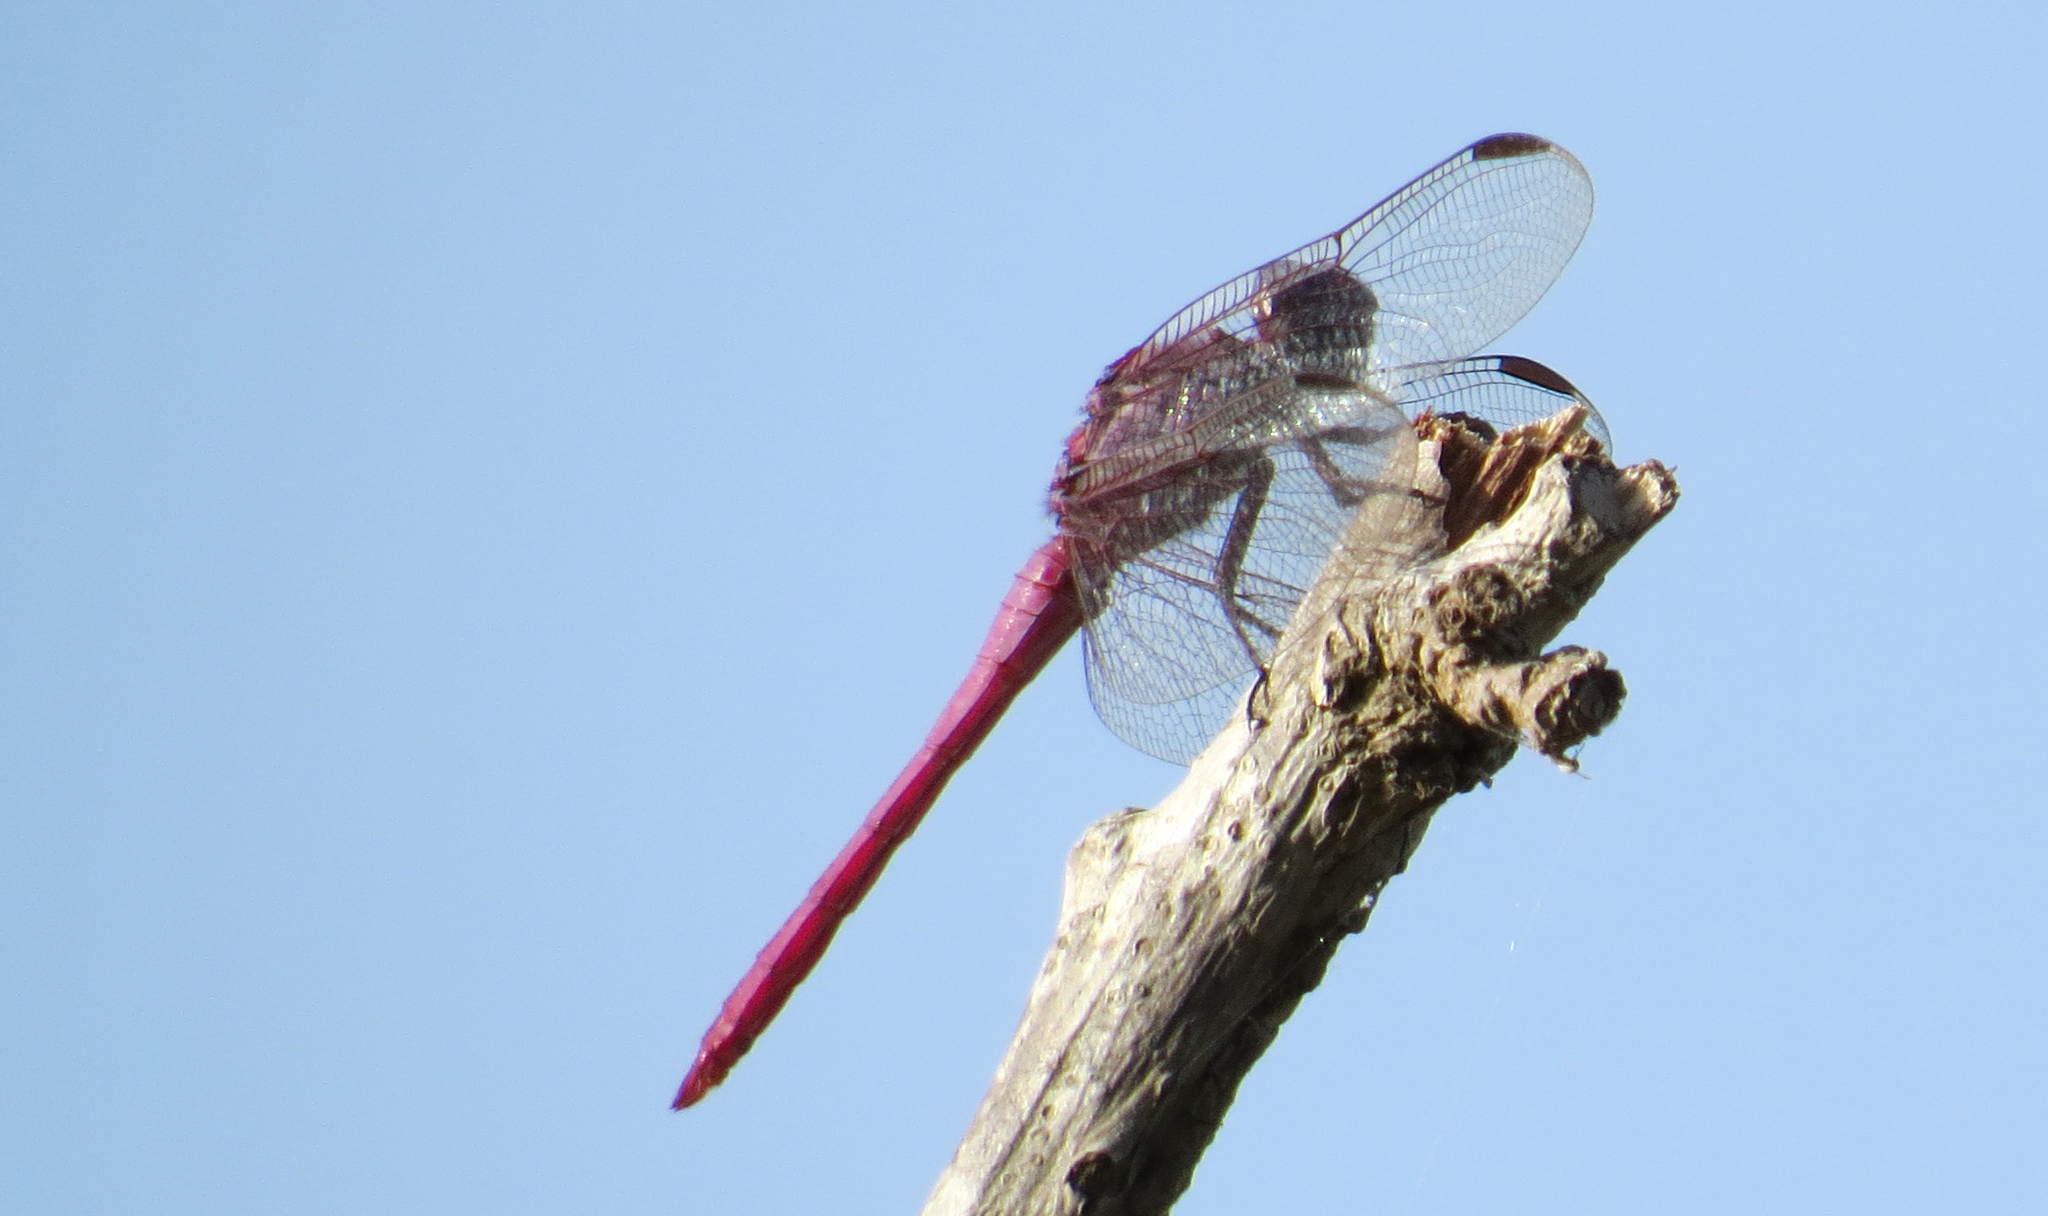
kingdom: Animalia
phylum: Arthropoda
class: Insecta
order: Odonata
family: Libellulidae
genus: Orthemis
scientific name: Orthemis ferruginea
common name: Roseate skimmer
